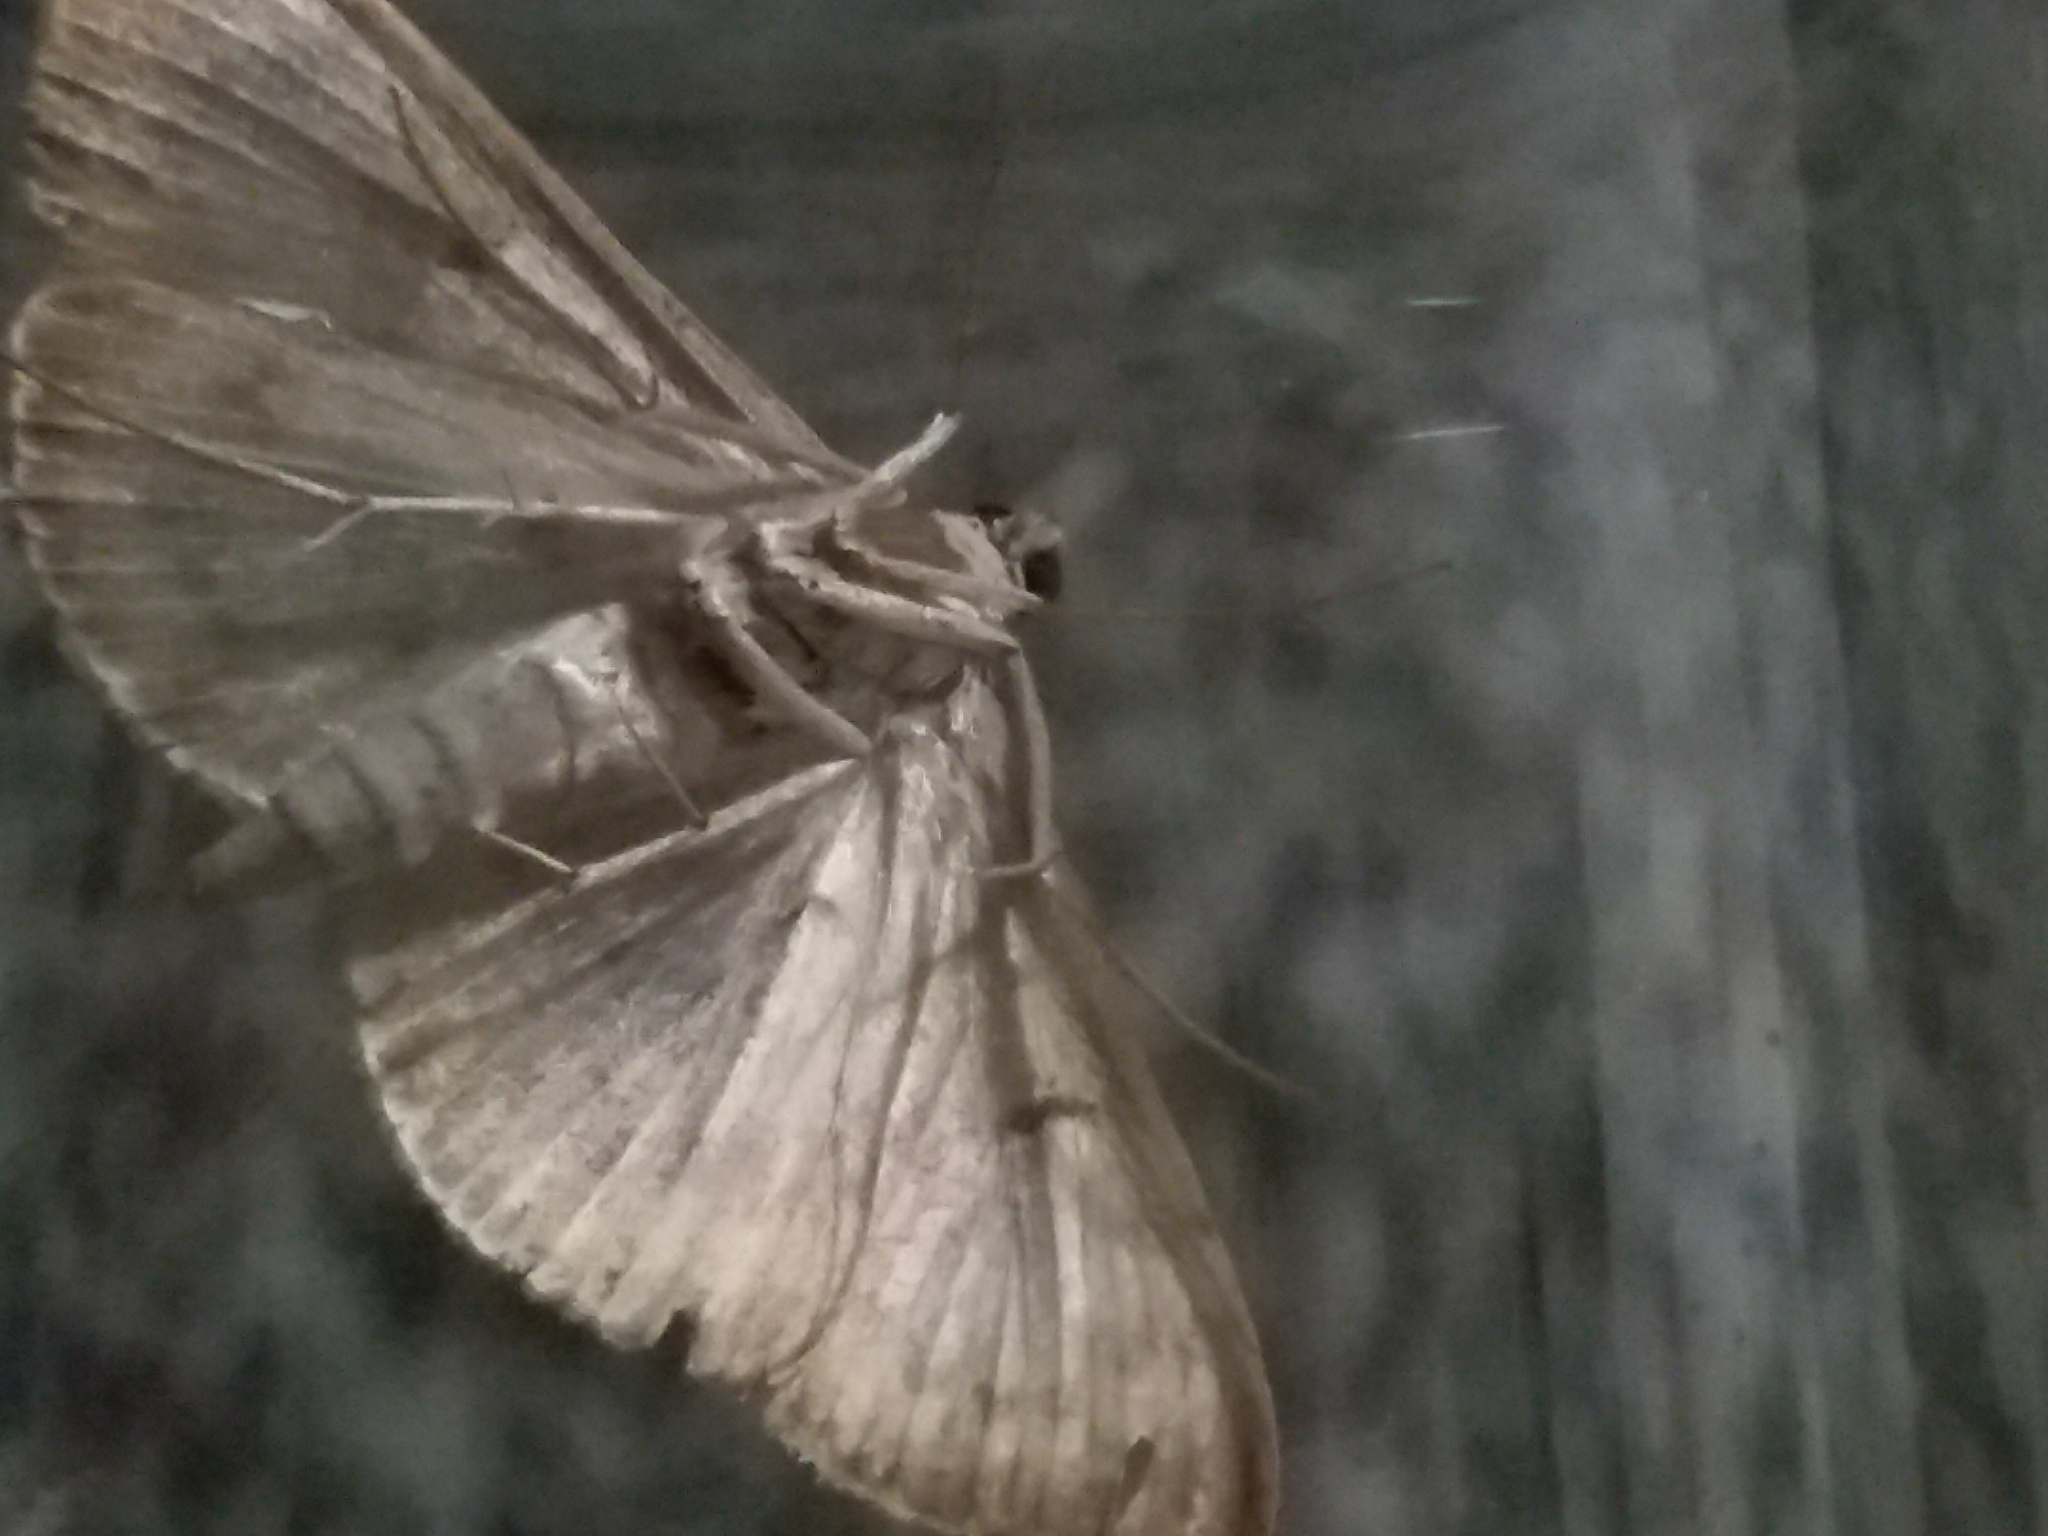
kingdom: Animalia
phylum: Arthropoda
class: Insecta
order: Lepidoptera
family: Crambidae
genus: Patania
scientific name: Patania ruralis
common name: Mother of pearl
